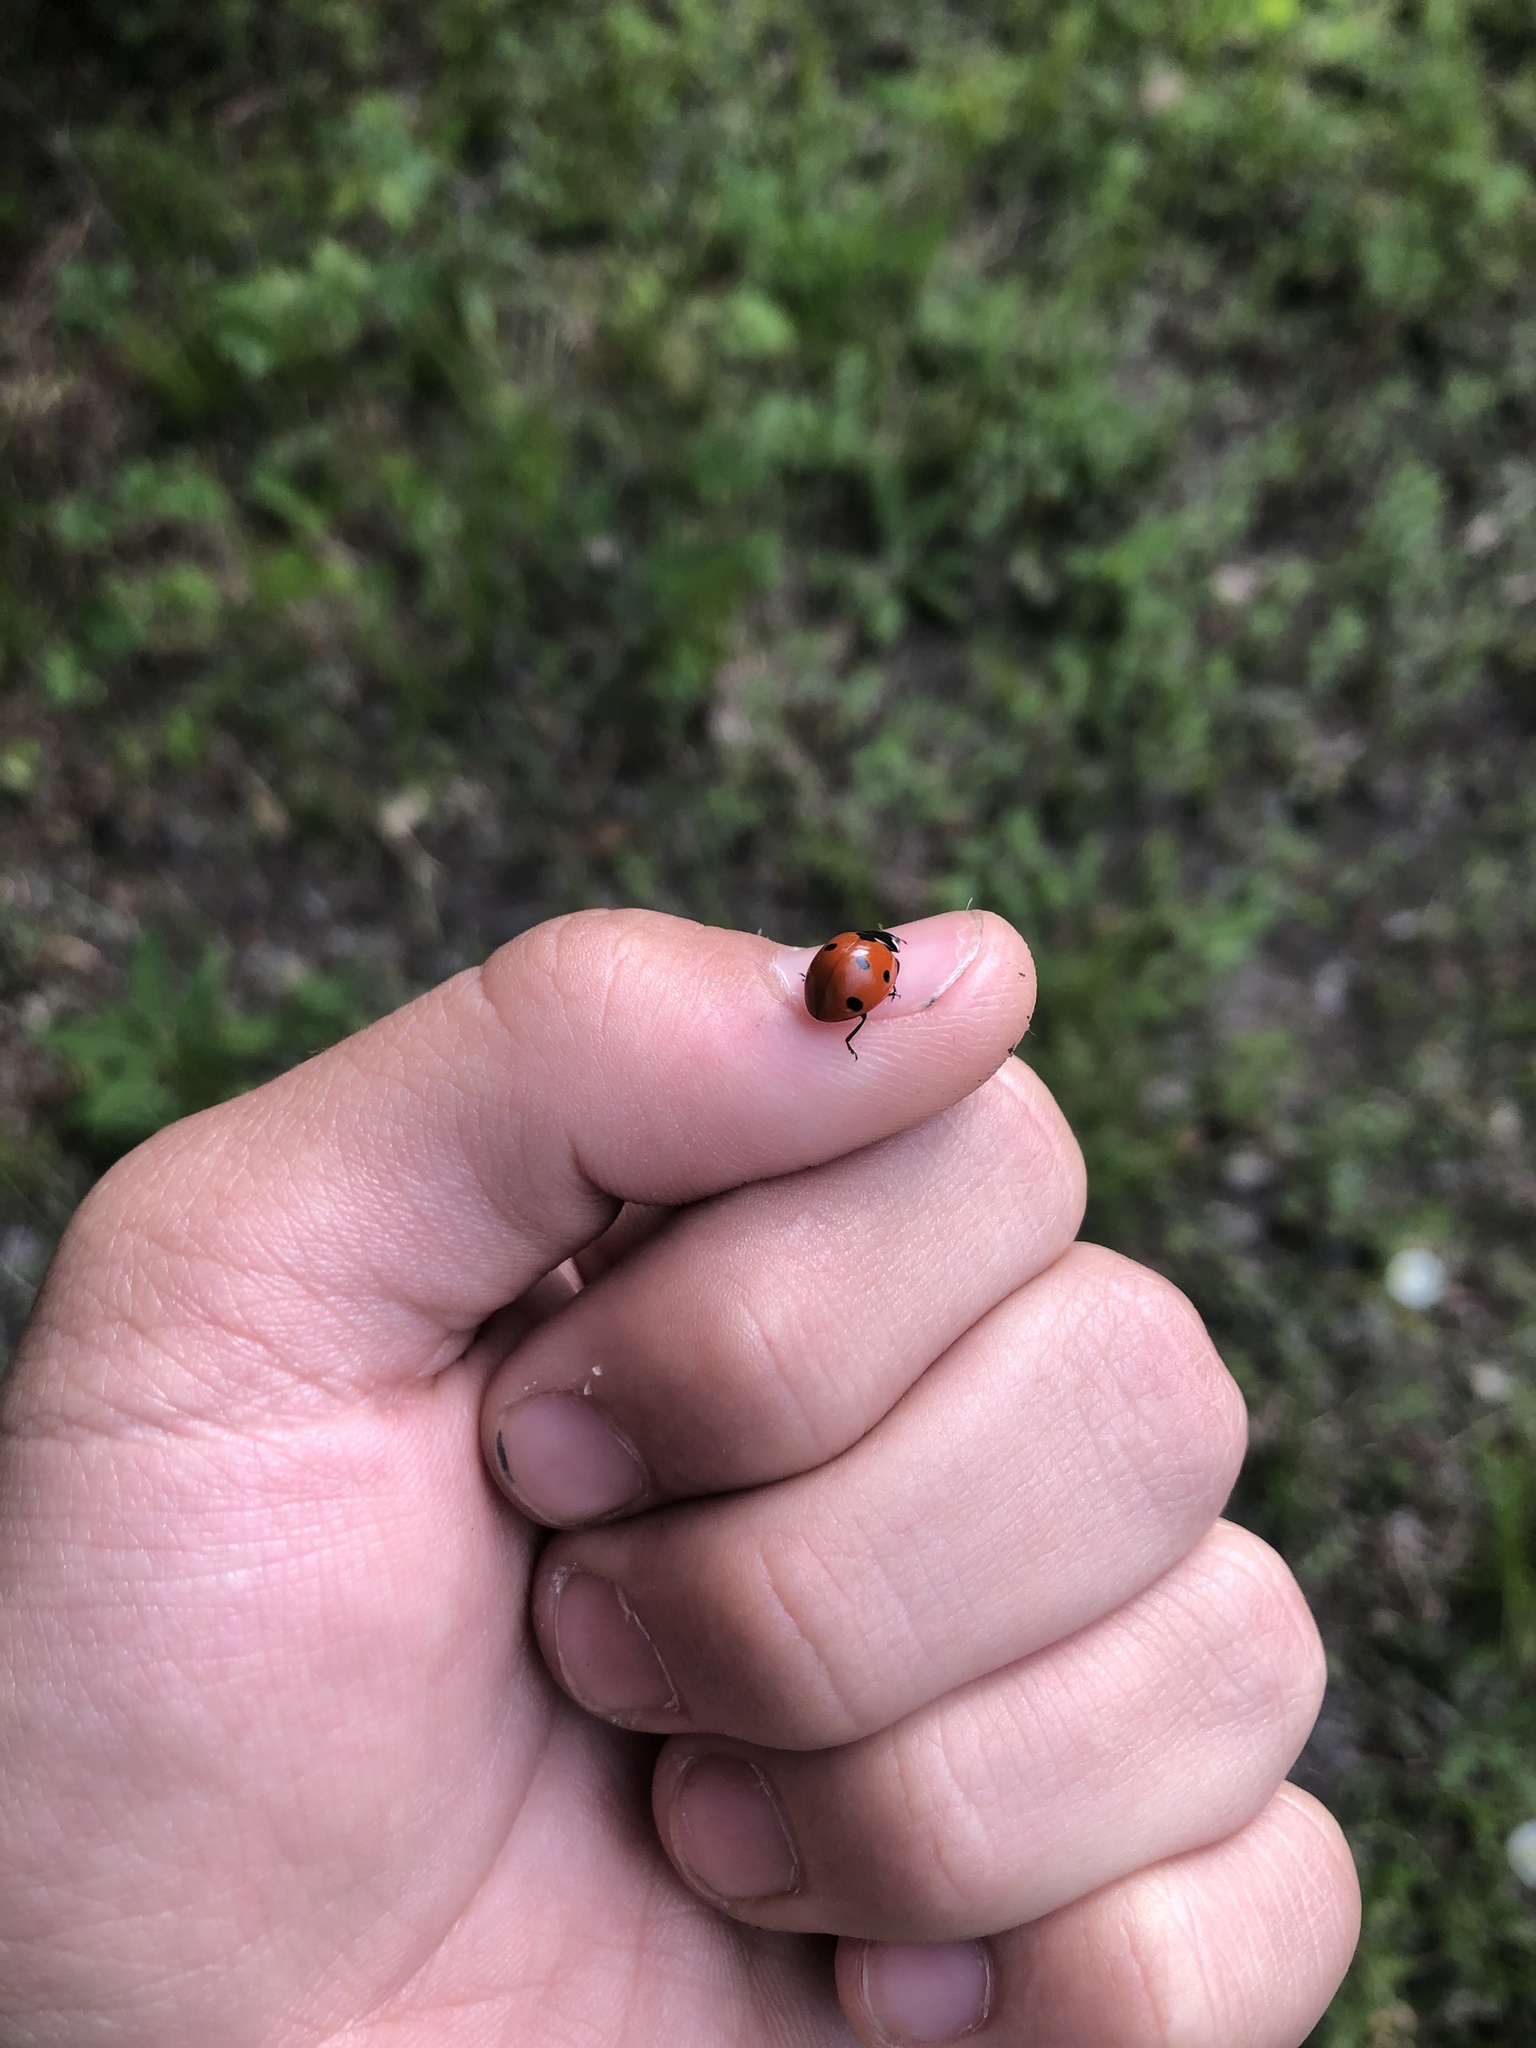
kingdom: Animalia
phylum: Arthropoda
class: Insecta
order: Coleoptera
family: Coccinellidae
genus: Coccinella
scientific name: Coccinella septempunctata
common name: Sevenspotted lady beetle
